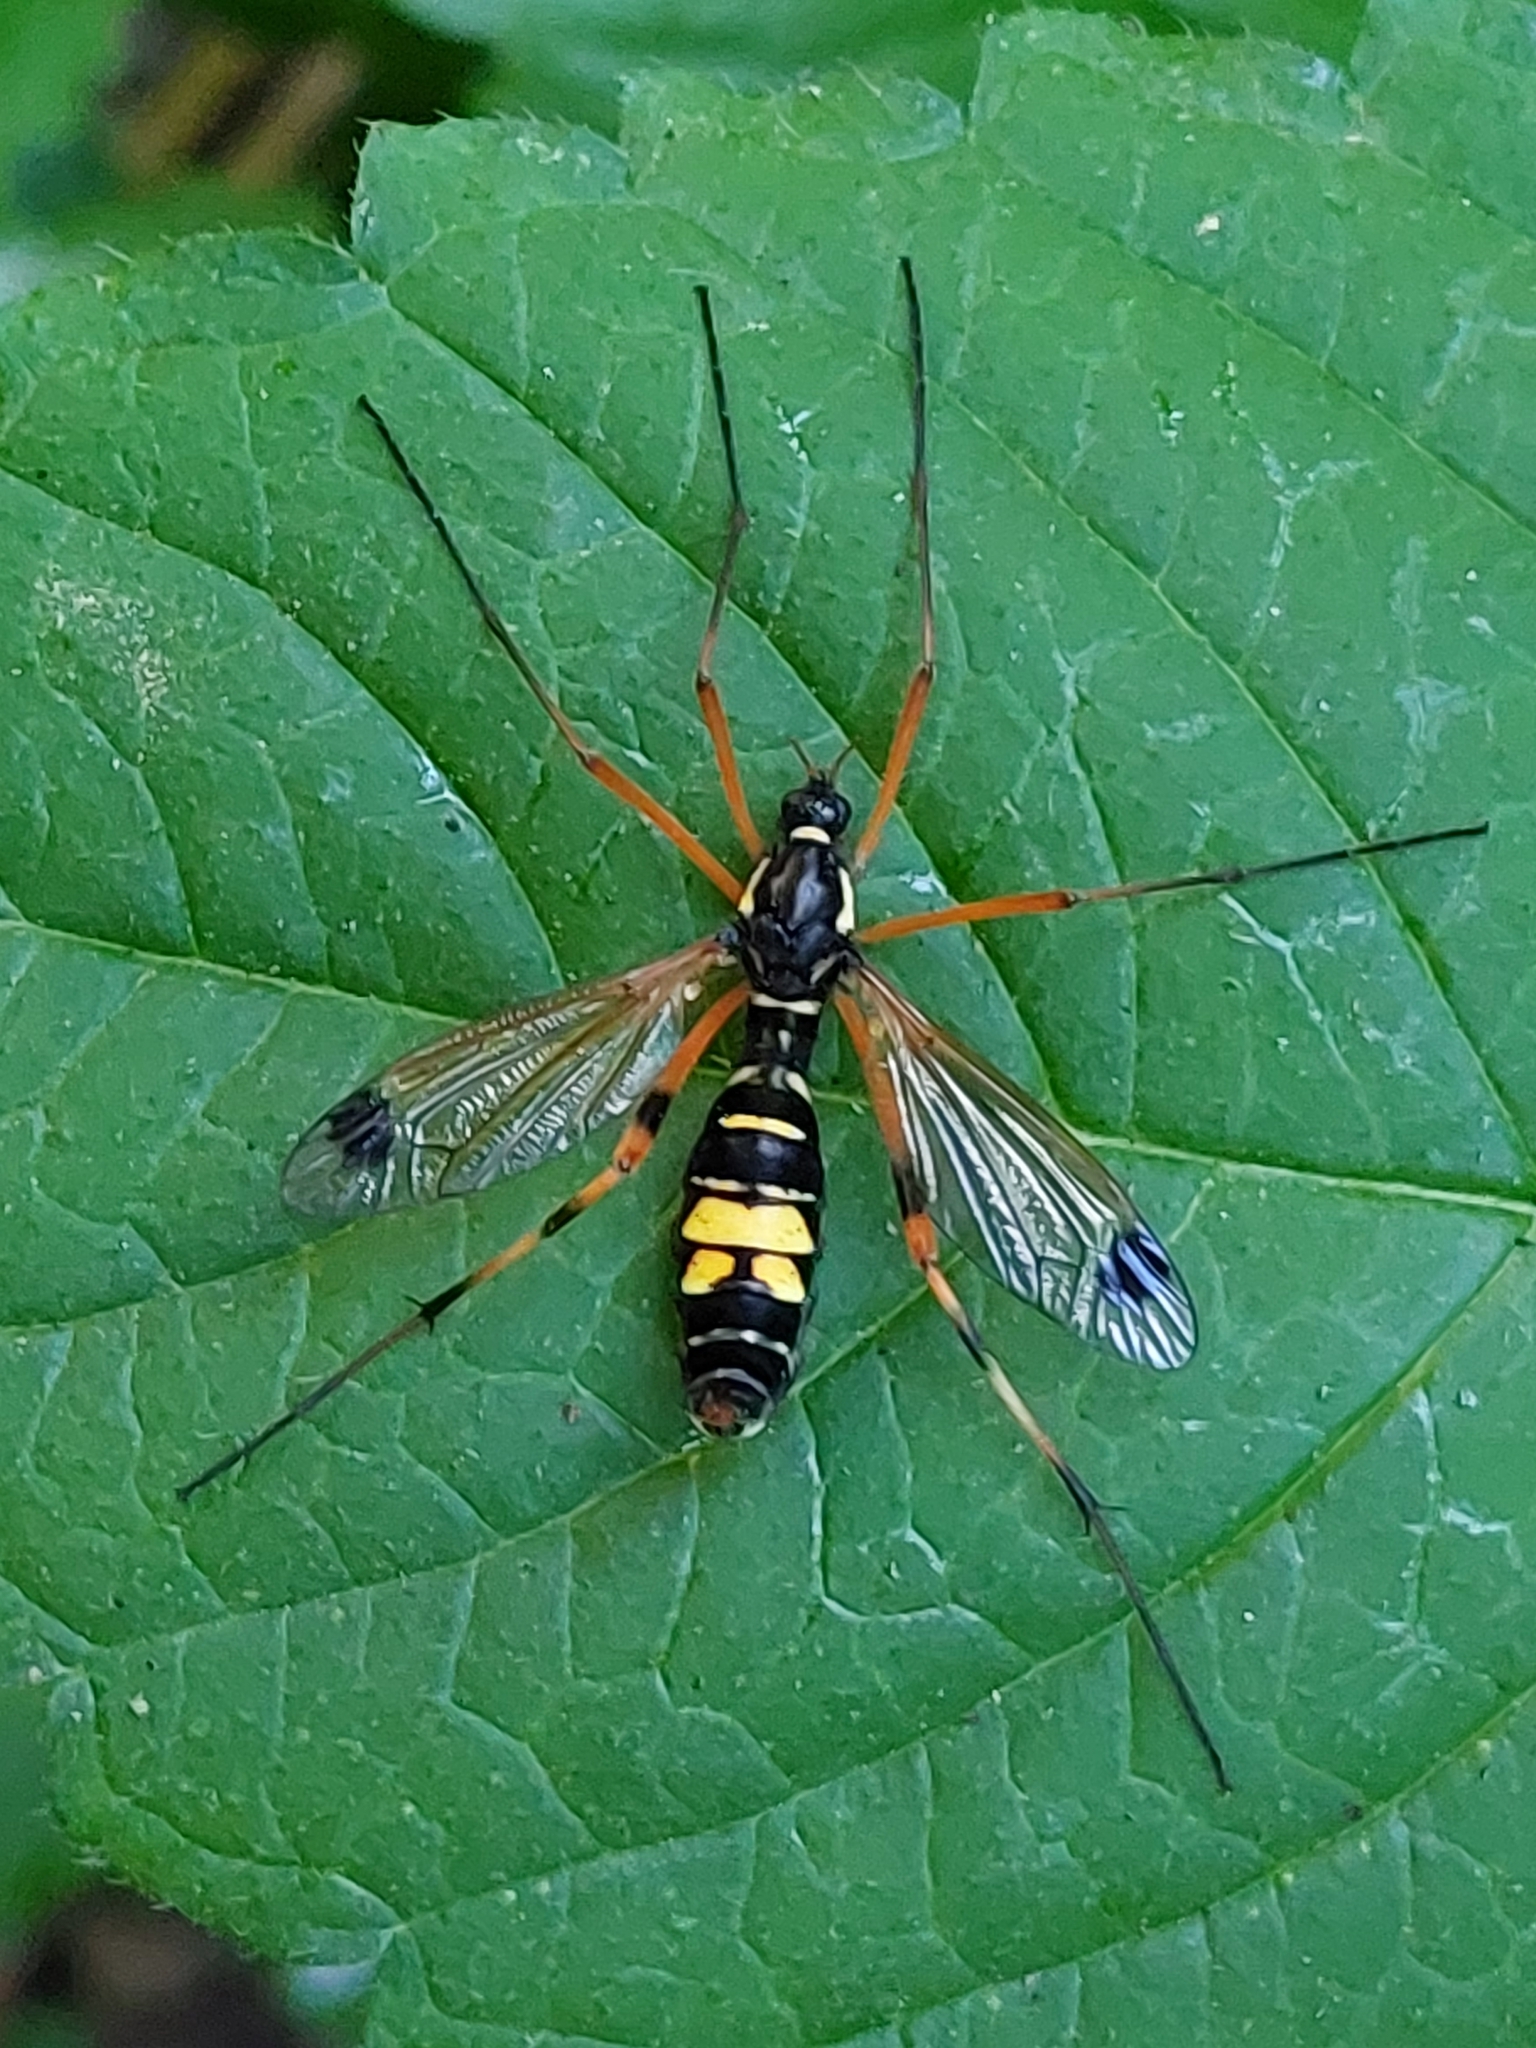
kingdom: Animalia
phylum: Arthropoda
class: Insecta
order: Diptera
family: Tipulidae
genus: Ctenophora
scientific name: Ctenophora festiva
